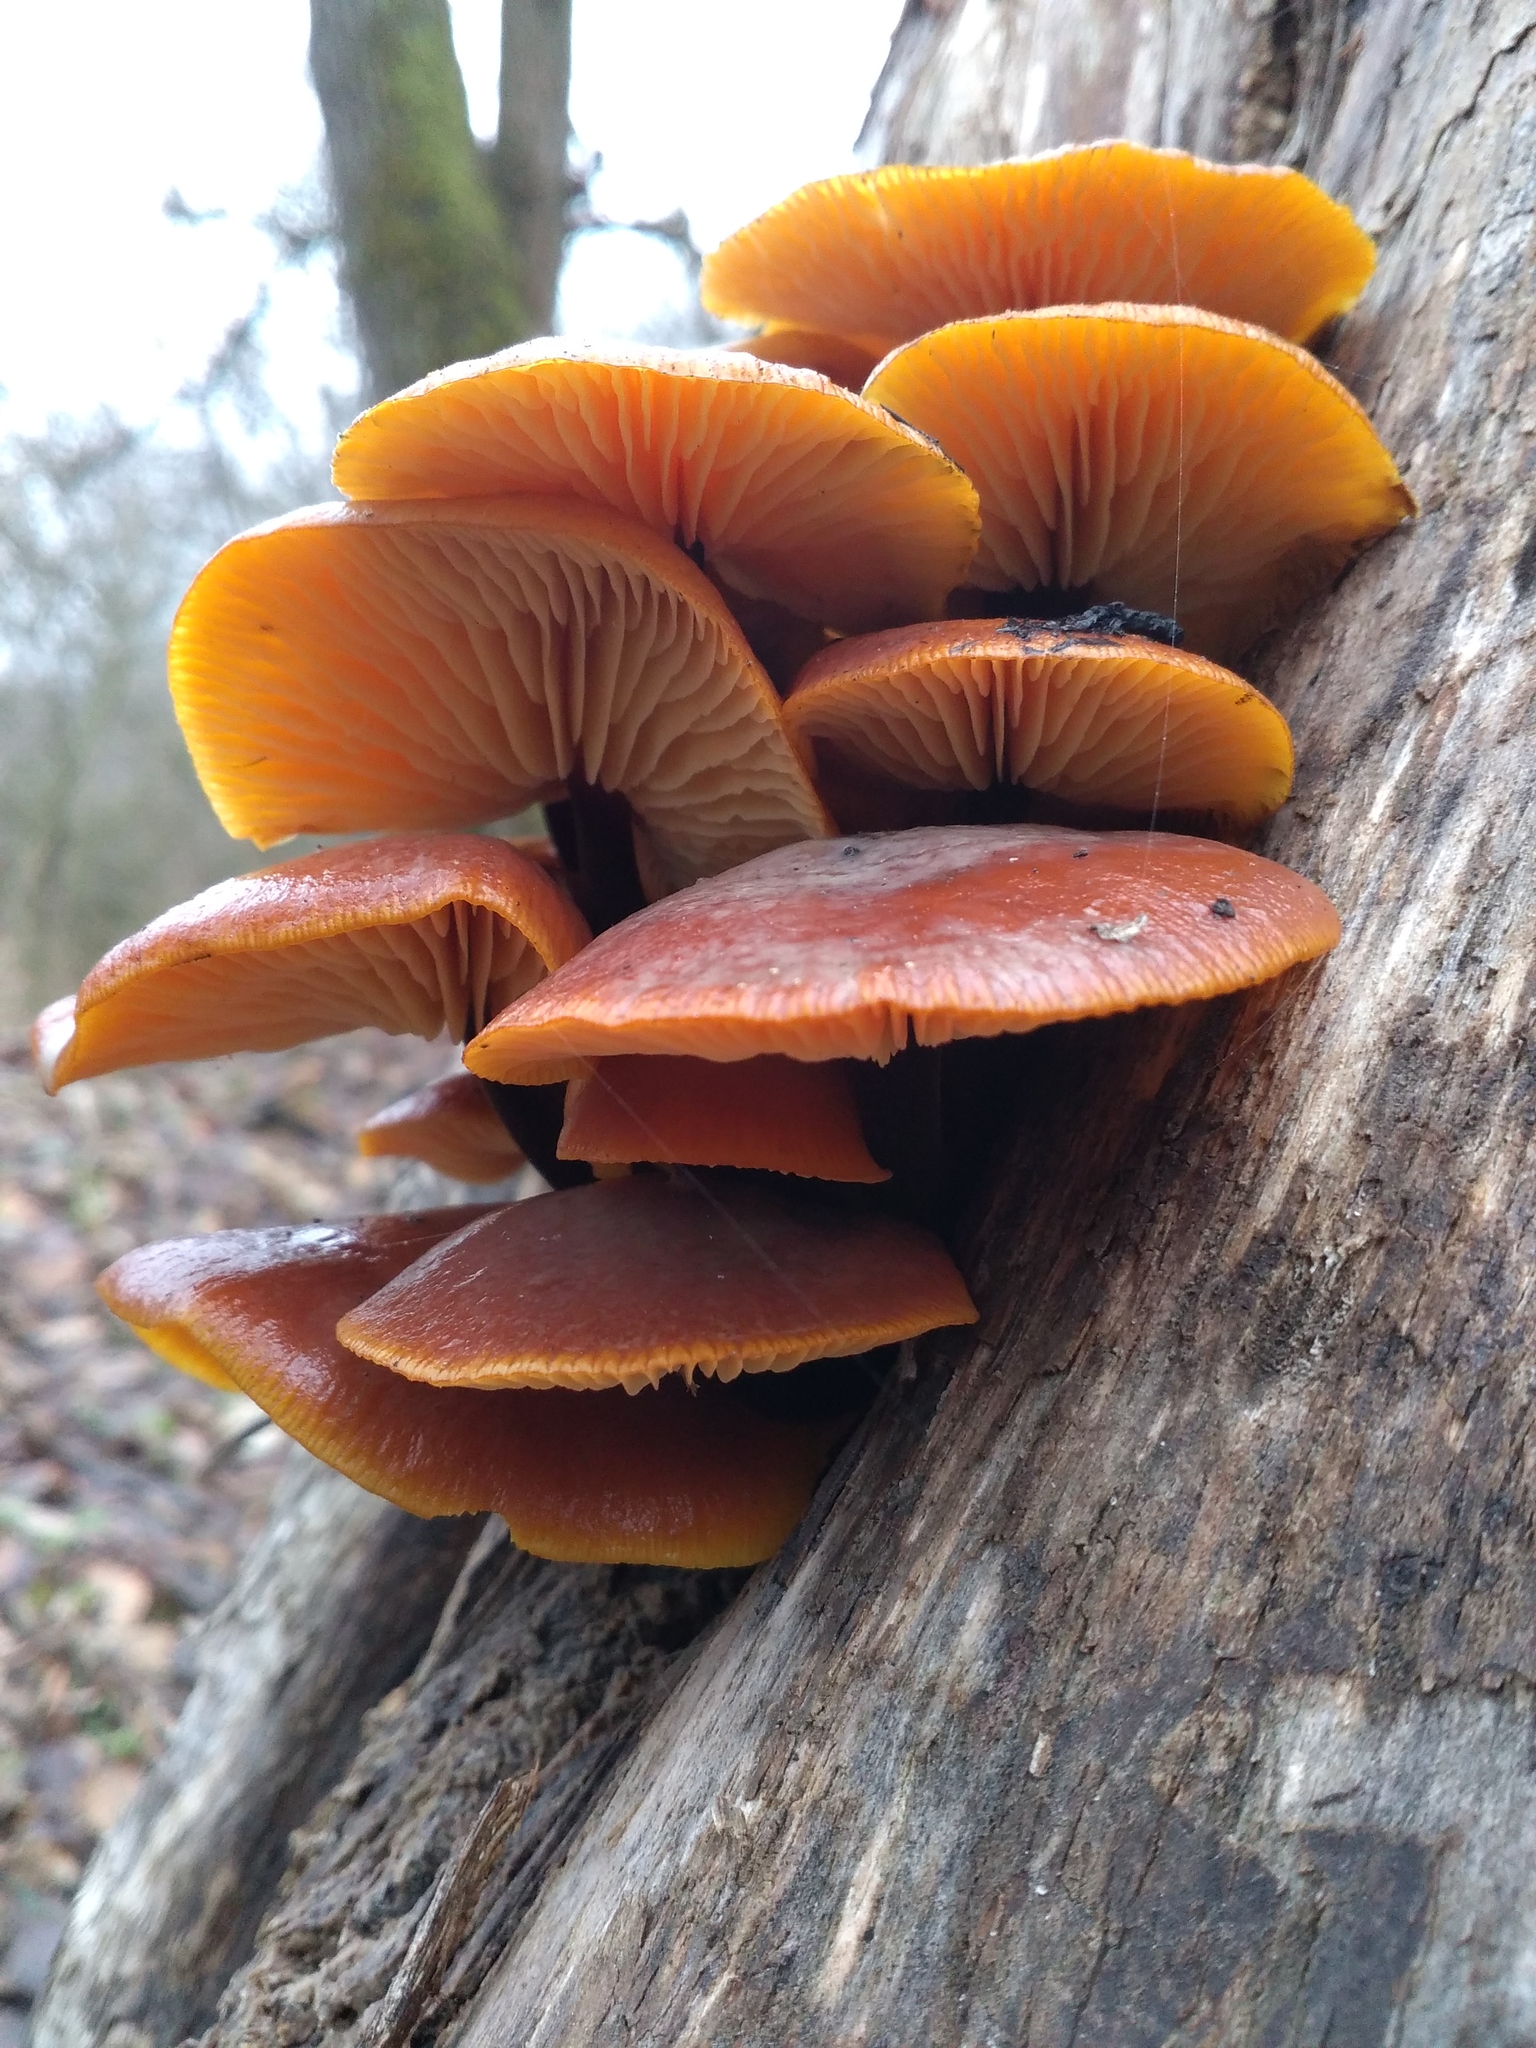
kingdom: Fungi
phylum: Basidiomycota
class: Agaricomycetes
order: Agaricales
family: Physalacriaceae
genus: Flammulina
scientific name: Flammulina
